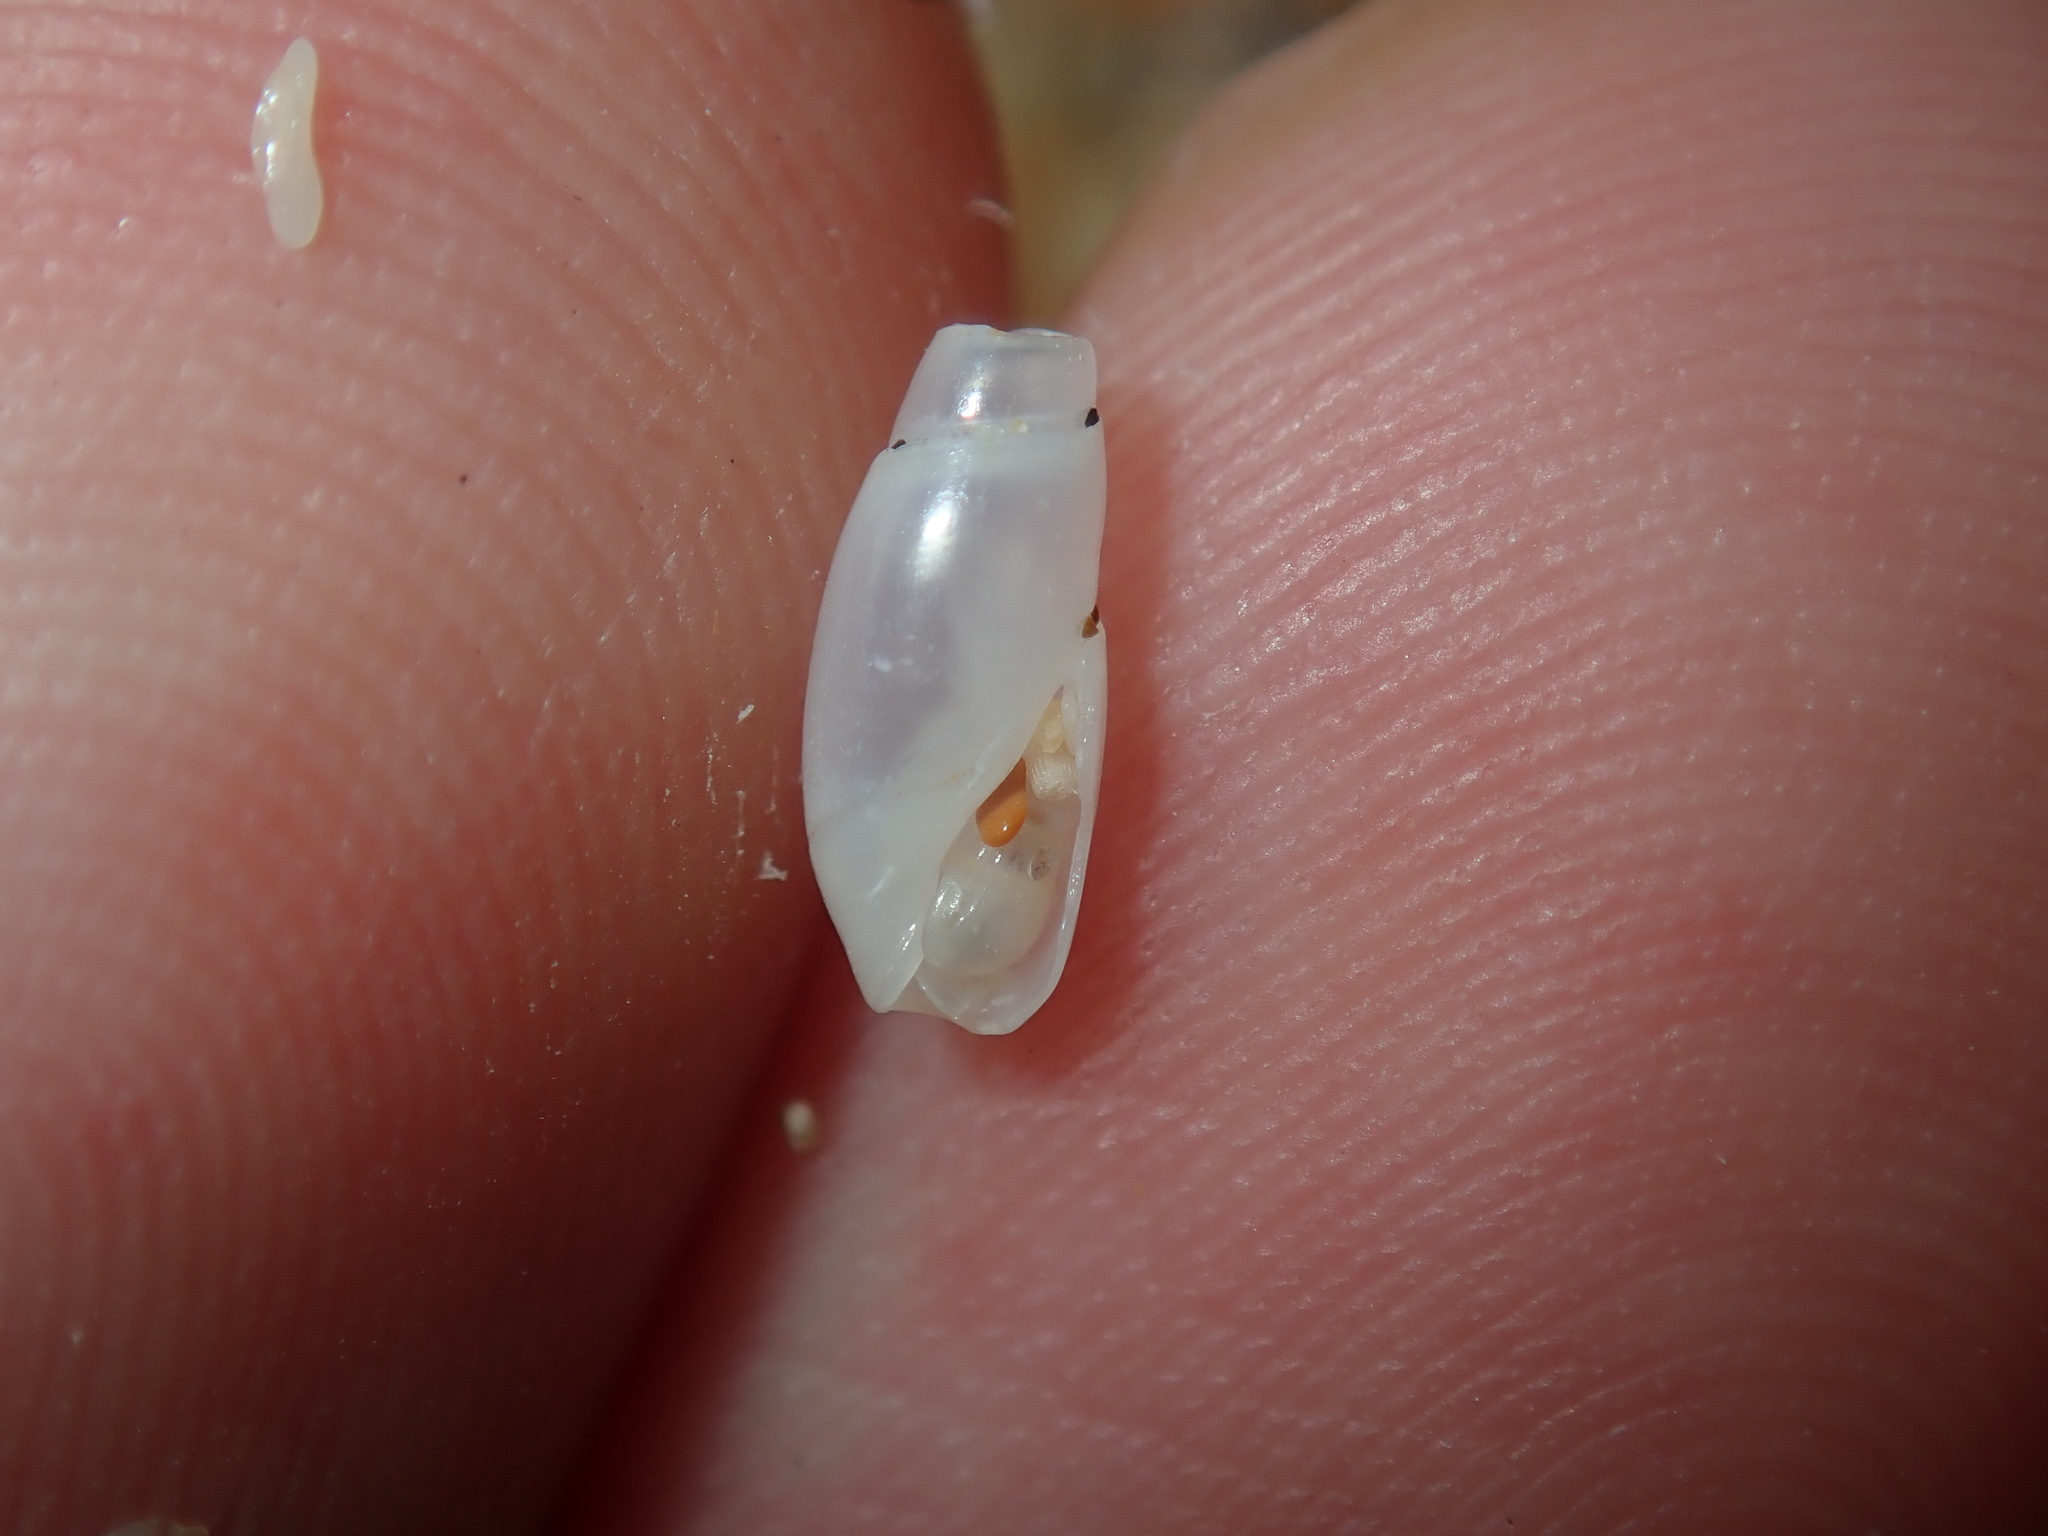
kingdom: Animalia
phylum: Mollusca
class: Gastropoda
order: Neogastropoda
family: Olividae
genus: Cupidoliva
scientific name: Cupidoliva nympha
